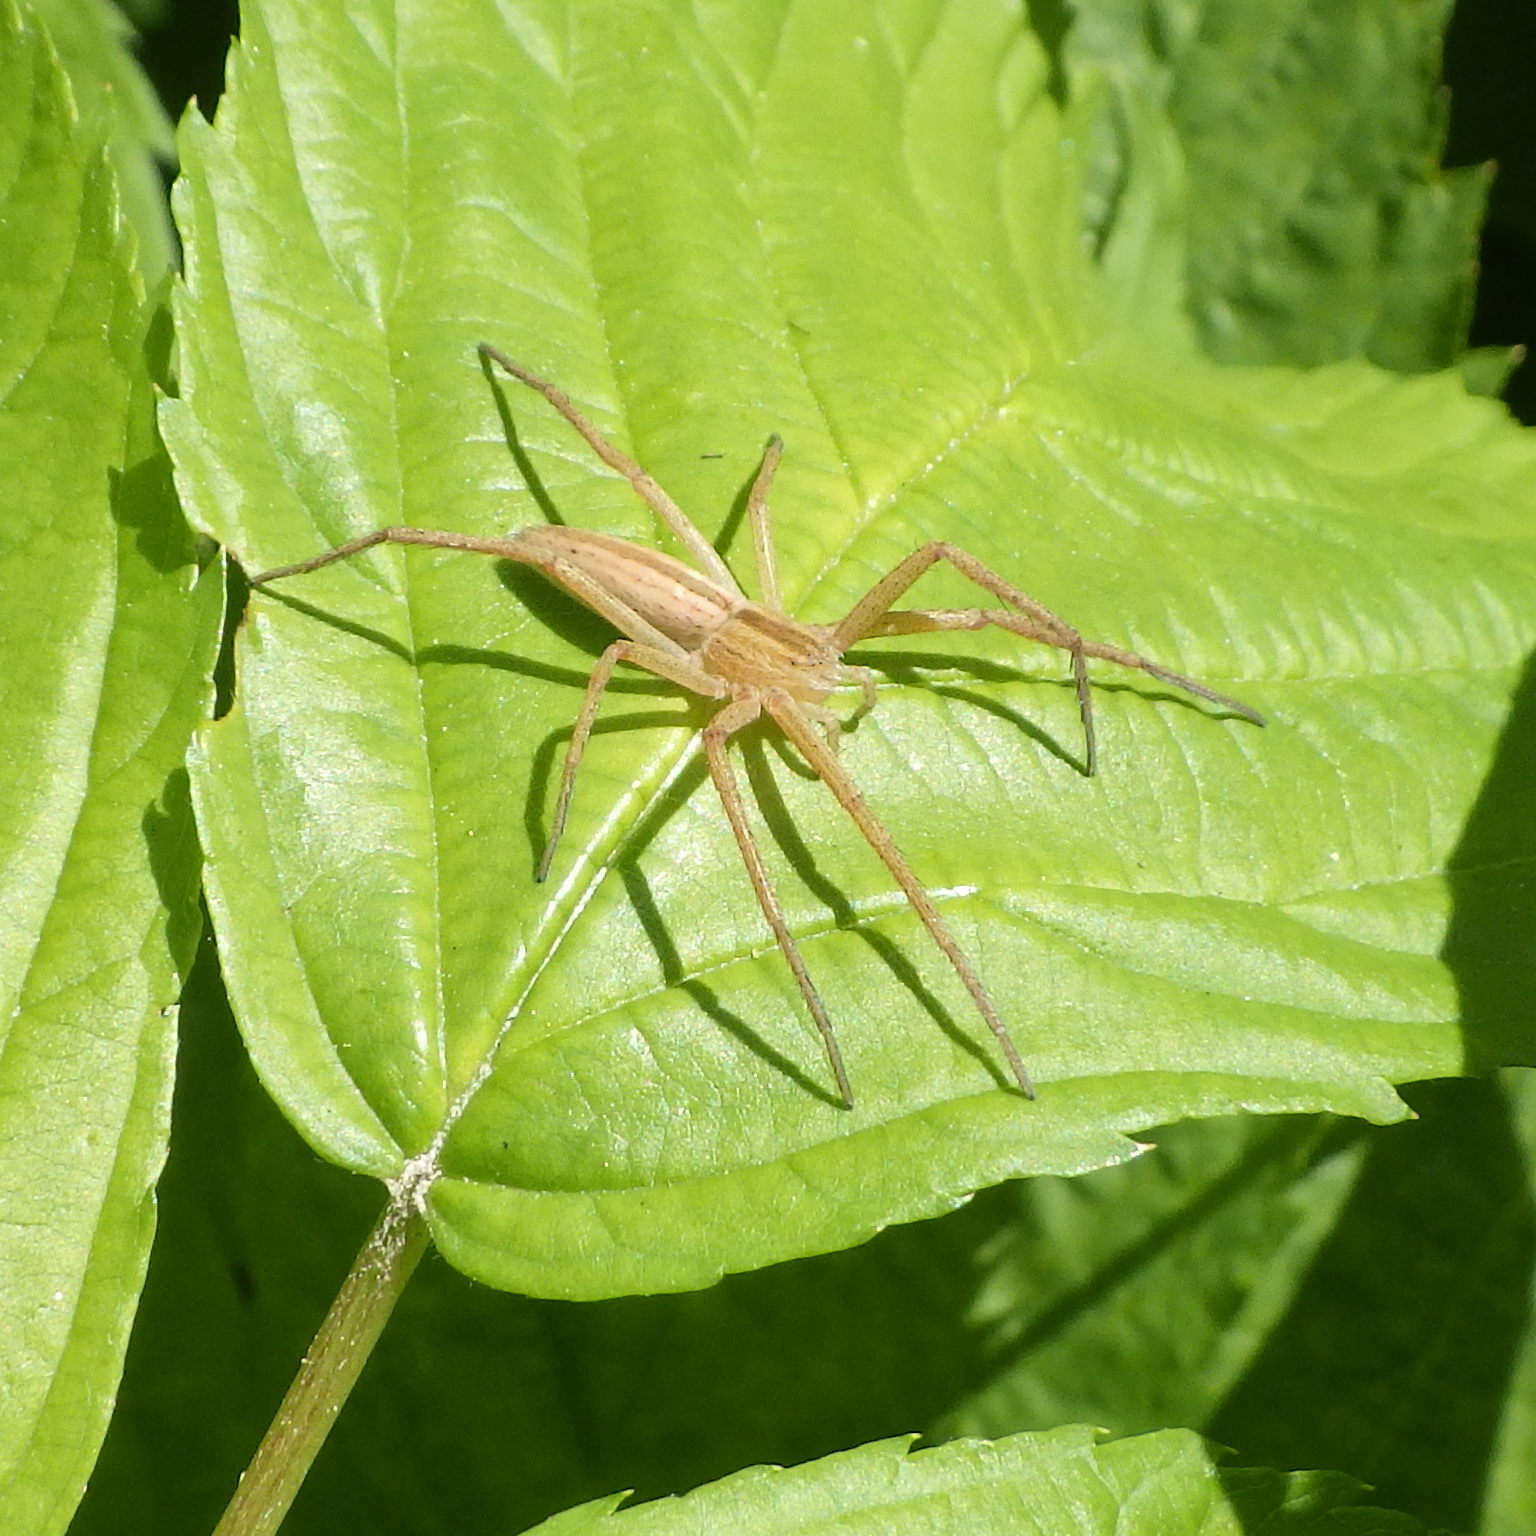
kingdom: Animalia
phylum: Arthropoda
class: Arachnida
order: Araneae
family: Philodromidae
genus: Tibellus
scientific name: Tibellus oblongus
